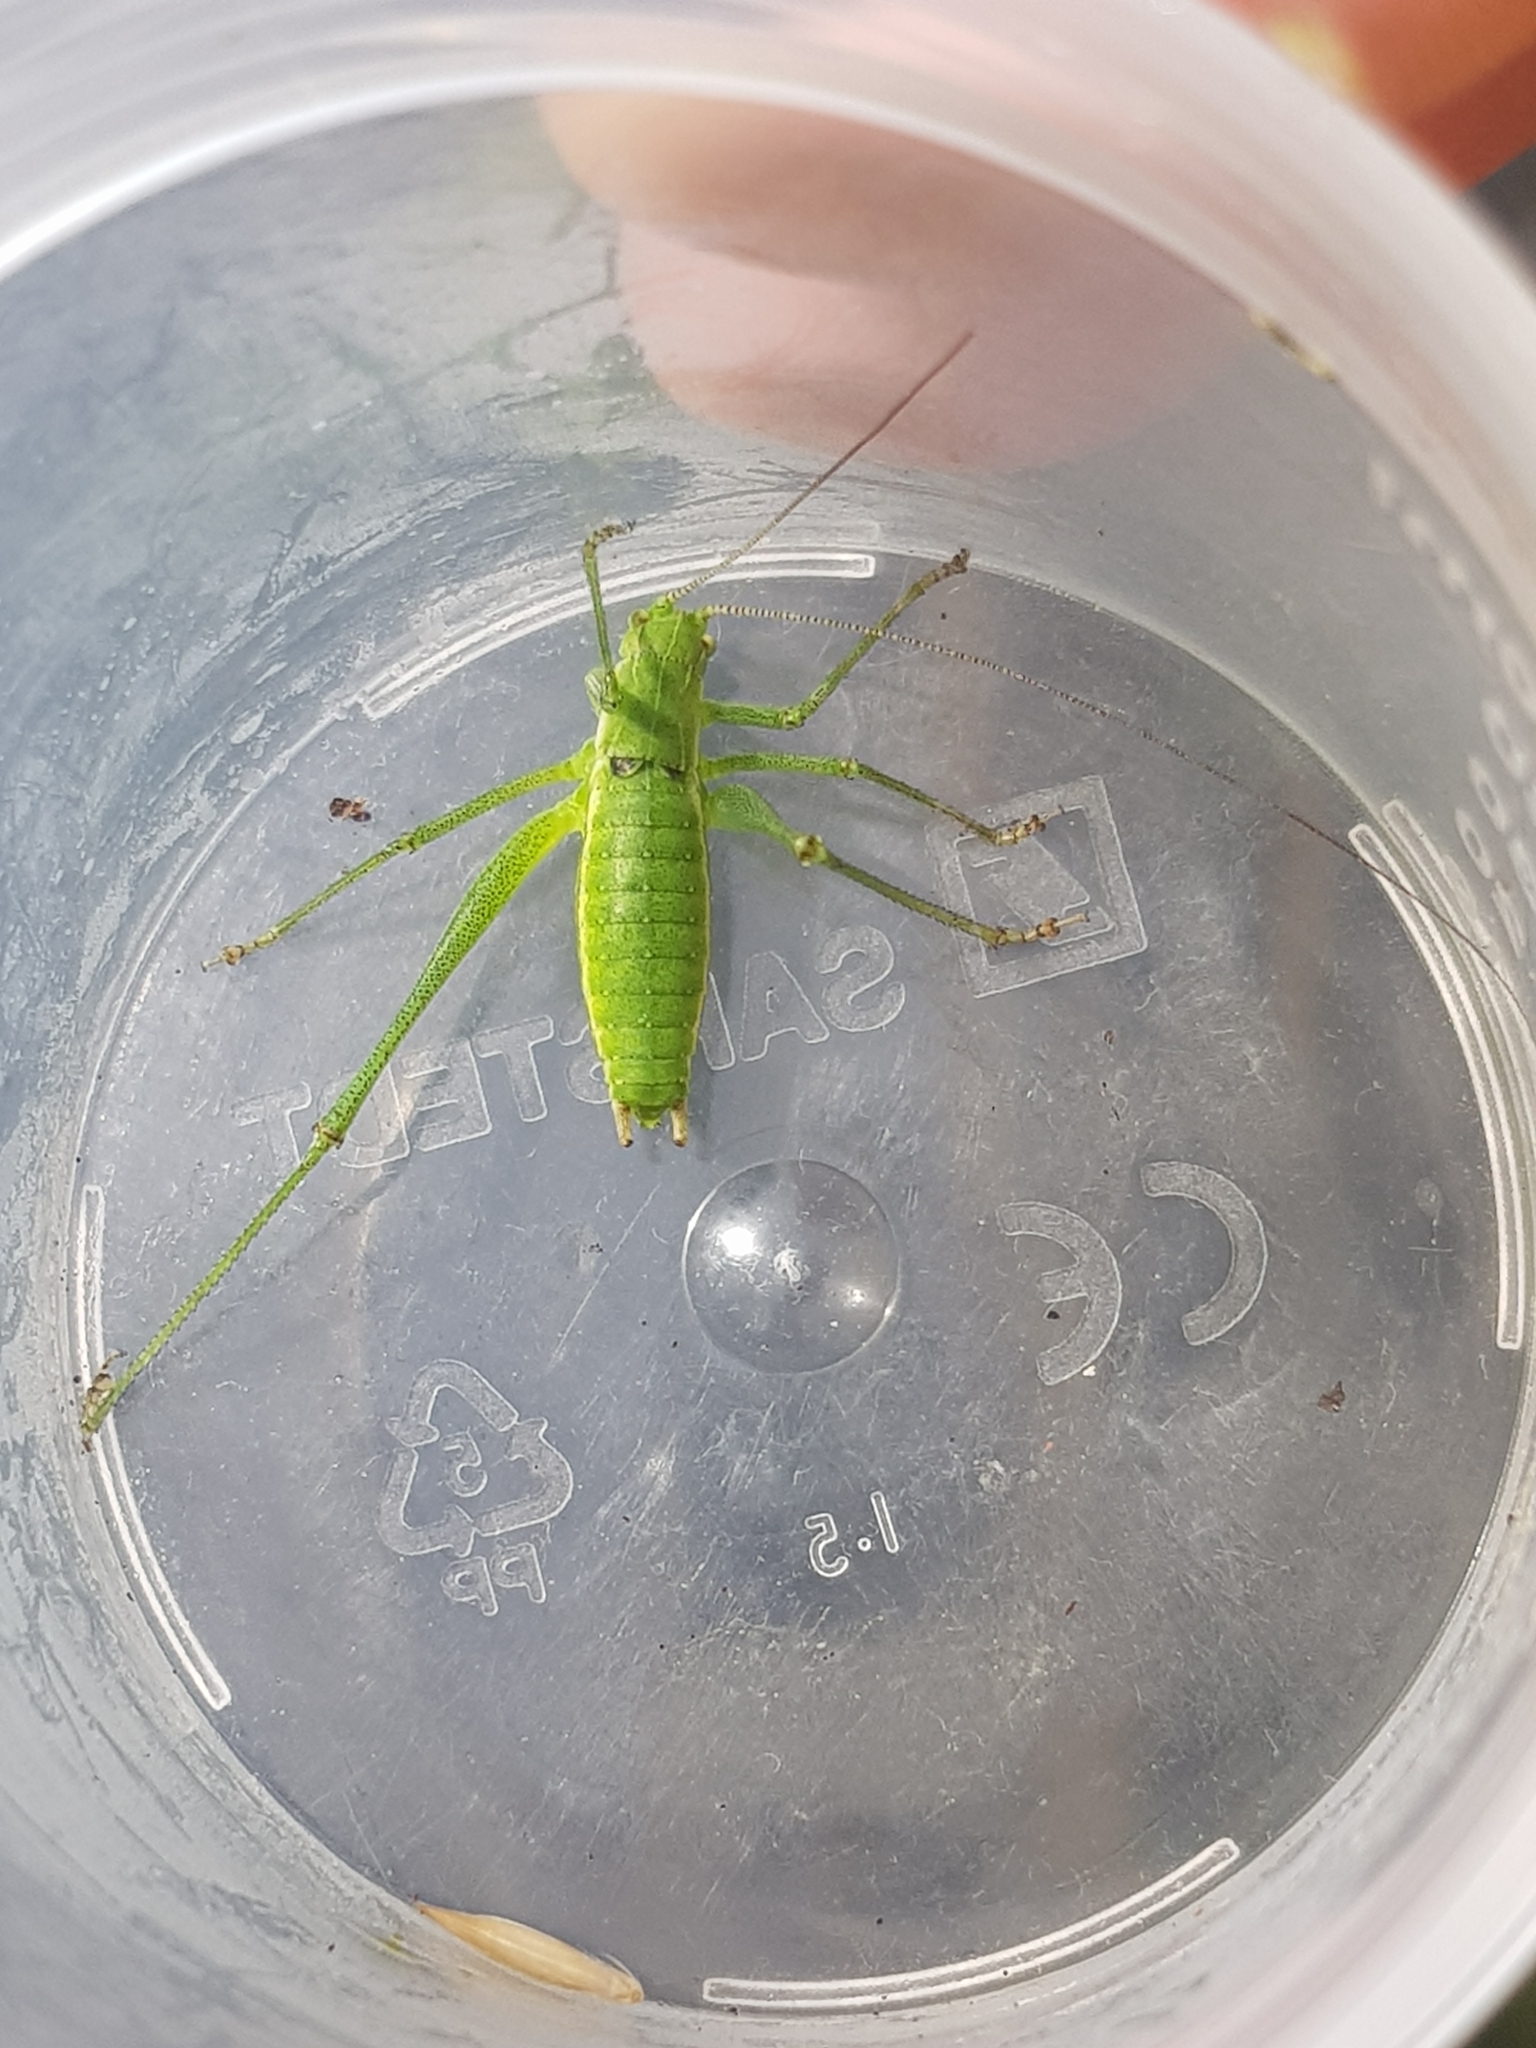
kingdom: Animalia
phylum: Arthropoda
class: Insecta
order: Orthoptera
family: Tettigoniidae
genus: Leptophyes
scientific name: Leptophyes boscii
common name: Balkan speckled bush-cricket
